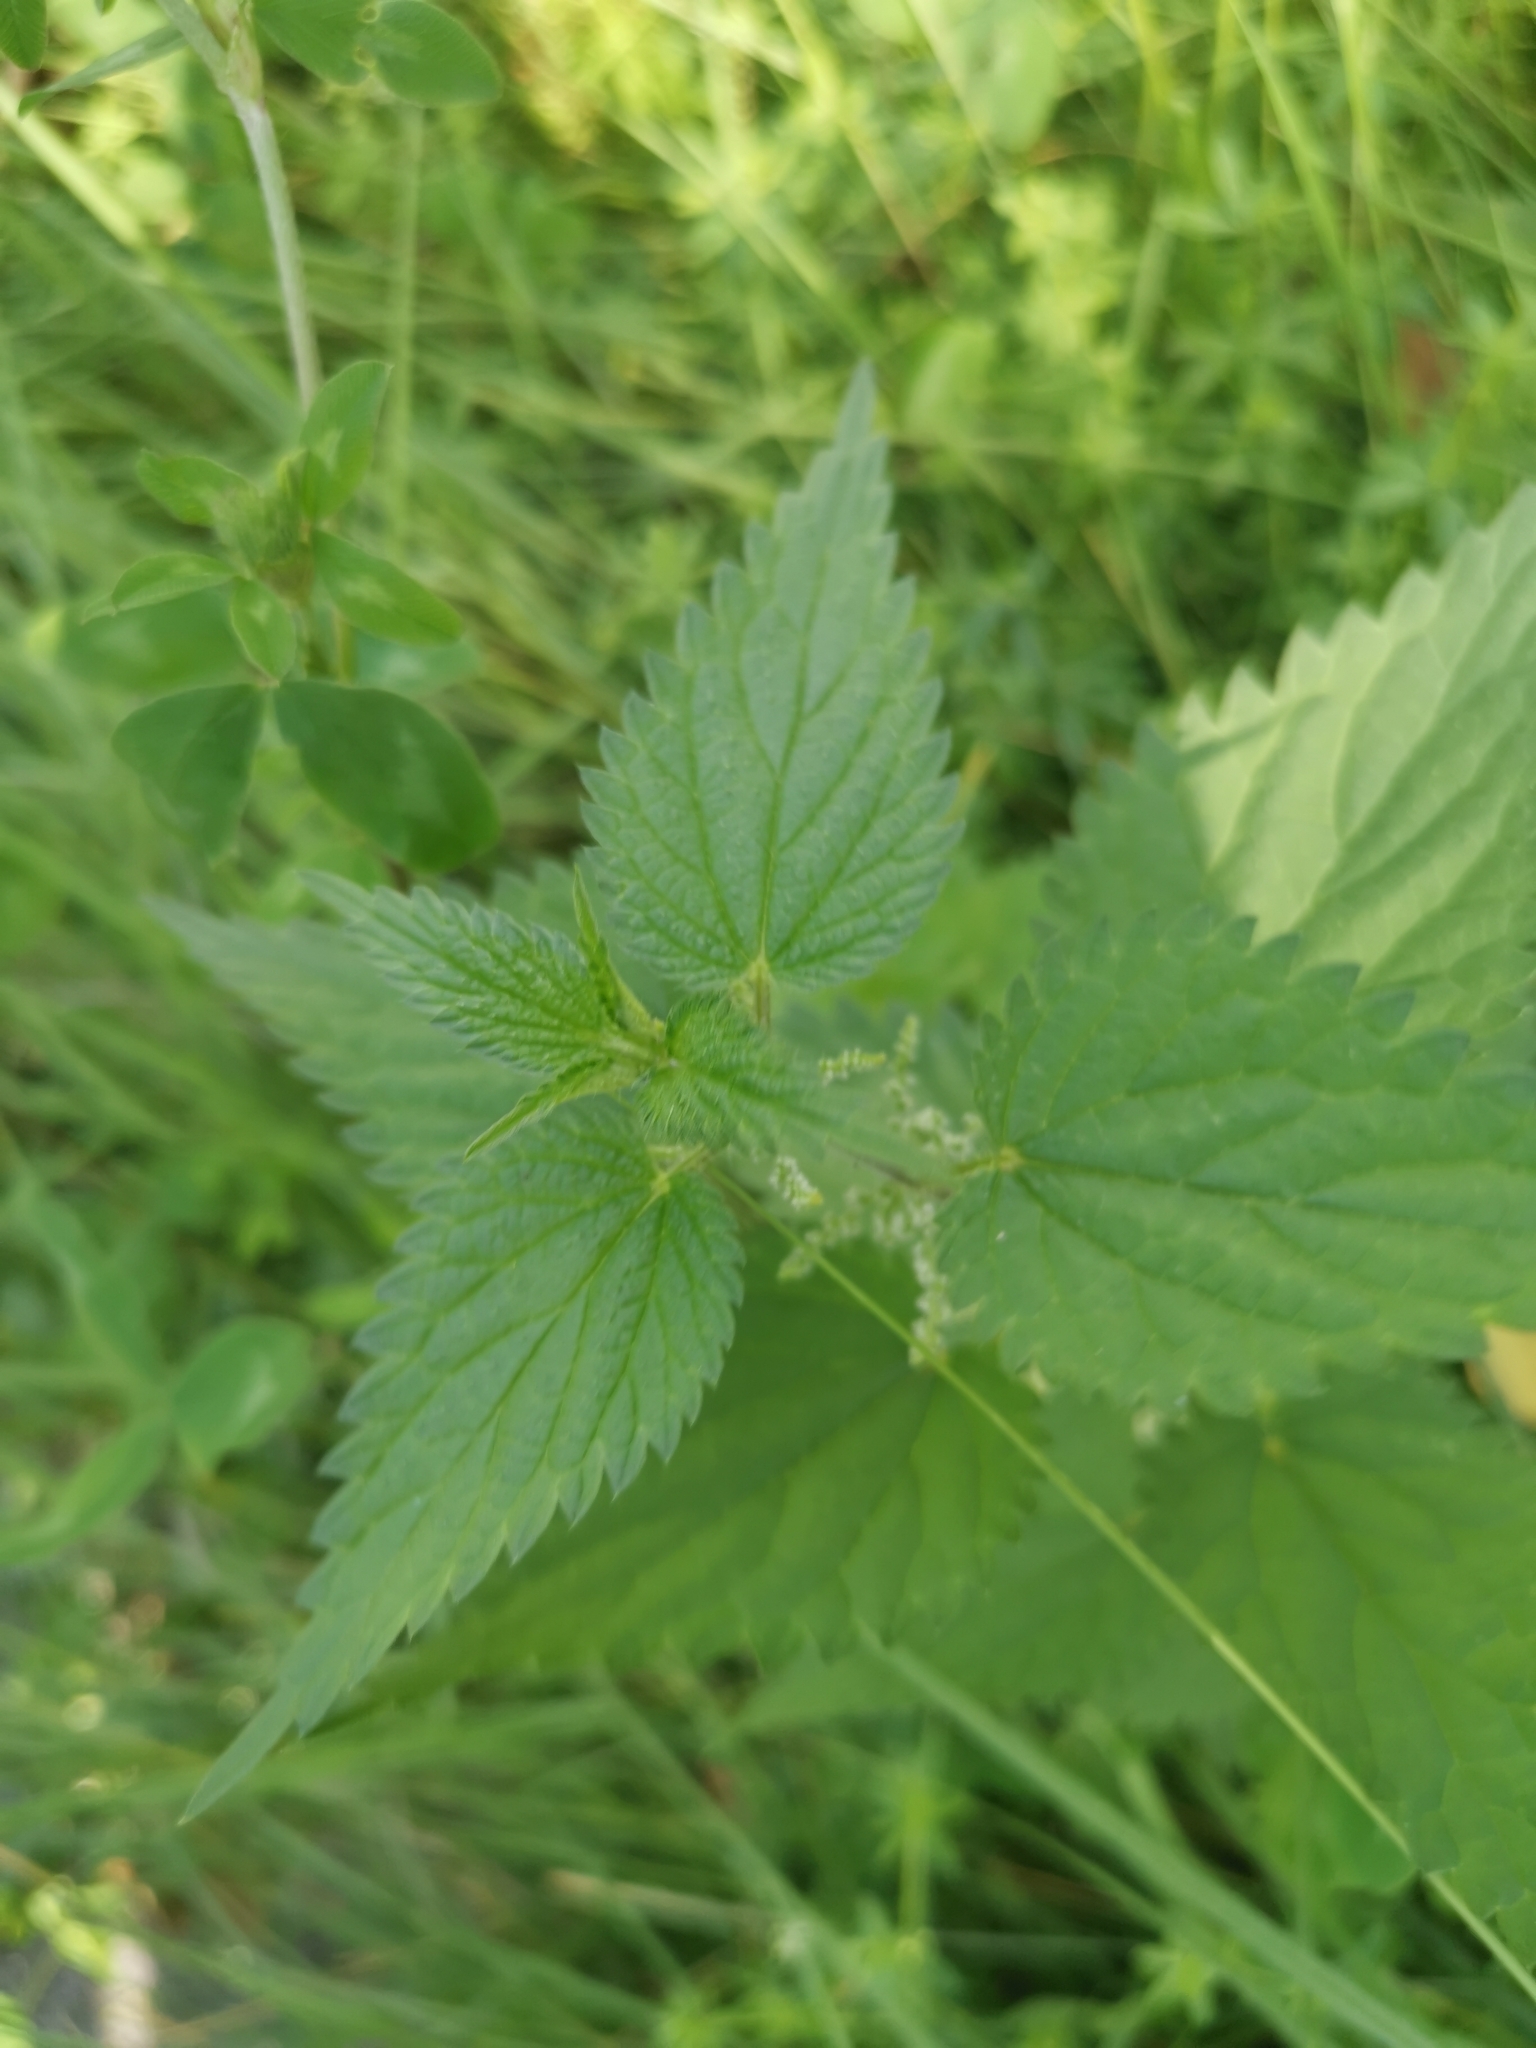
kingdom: Plantae
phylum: Tracheophyta
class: Magnoliopsida
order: Rosales
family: Urticaceae
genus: Urtica
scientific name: Urtica dioica
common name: Common nettle
